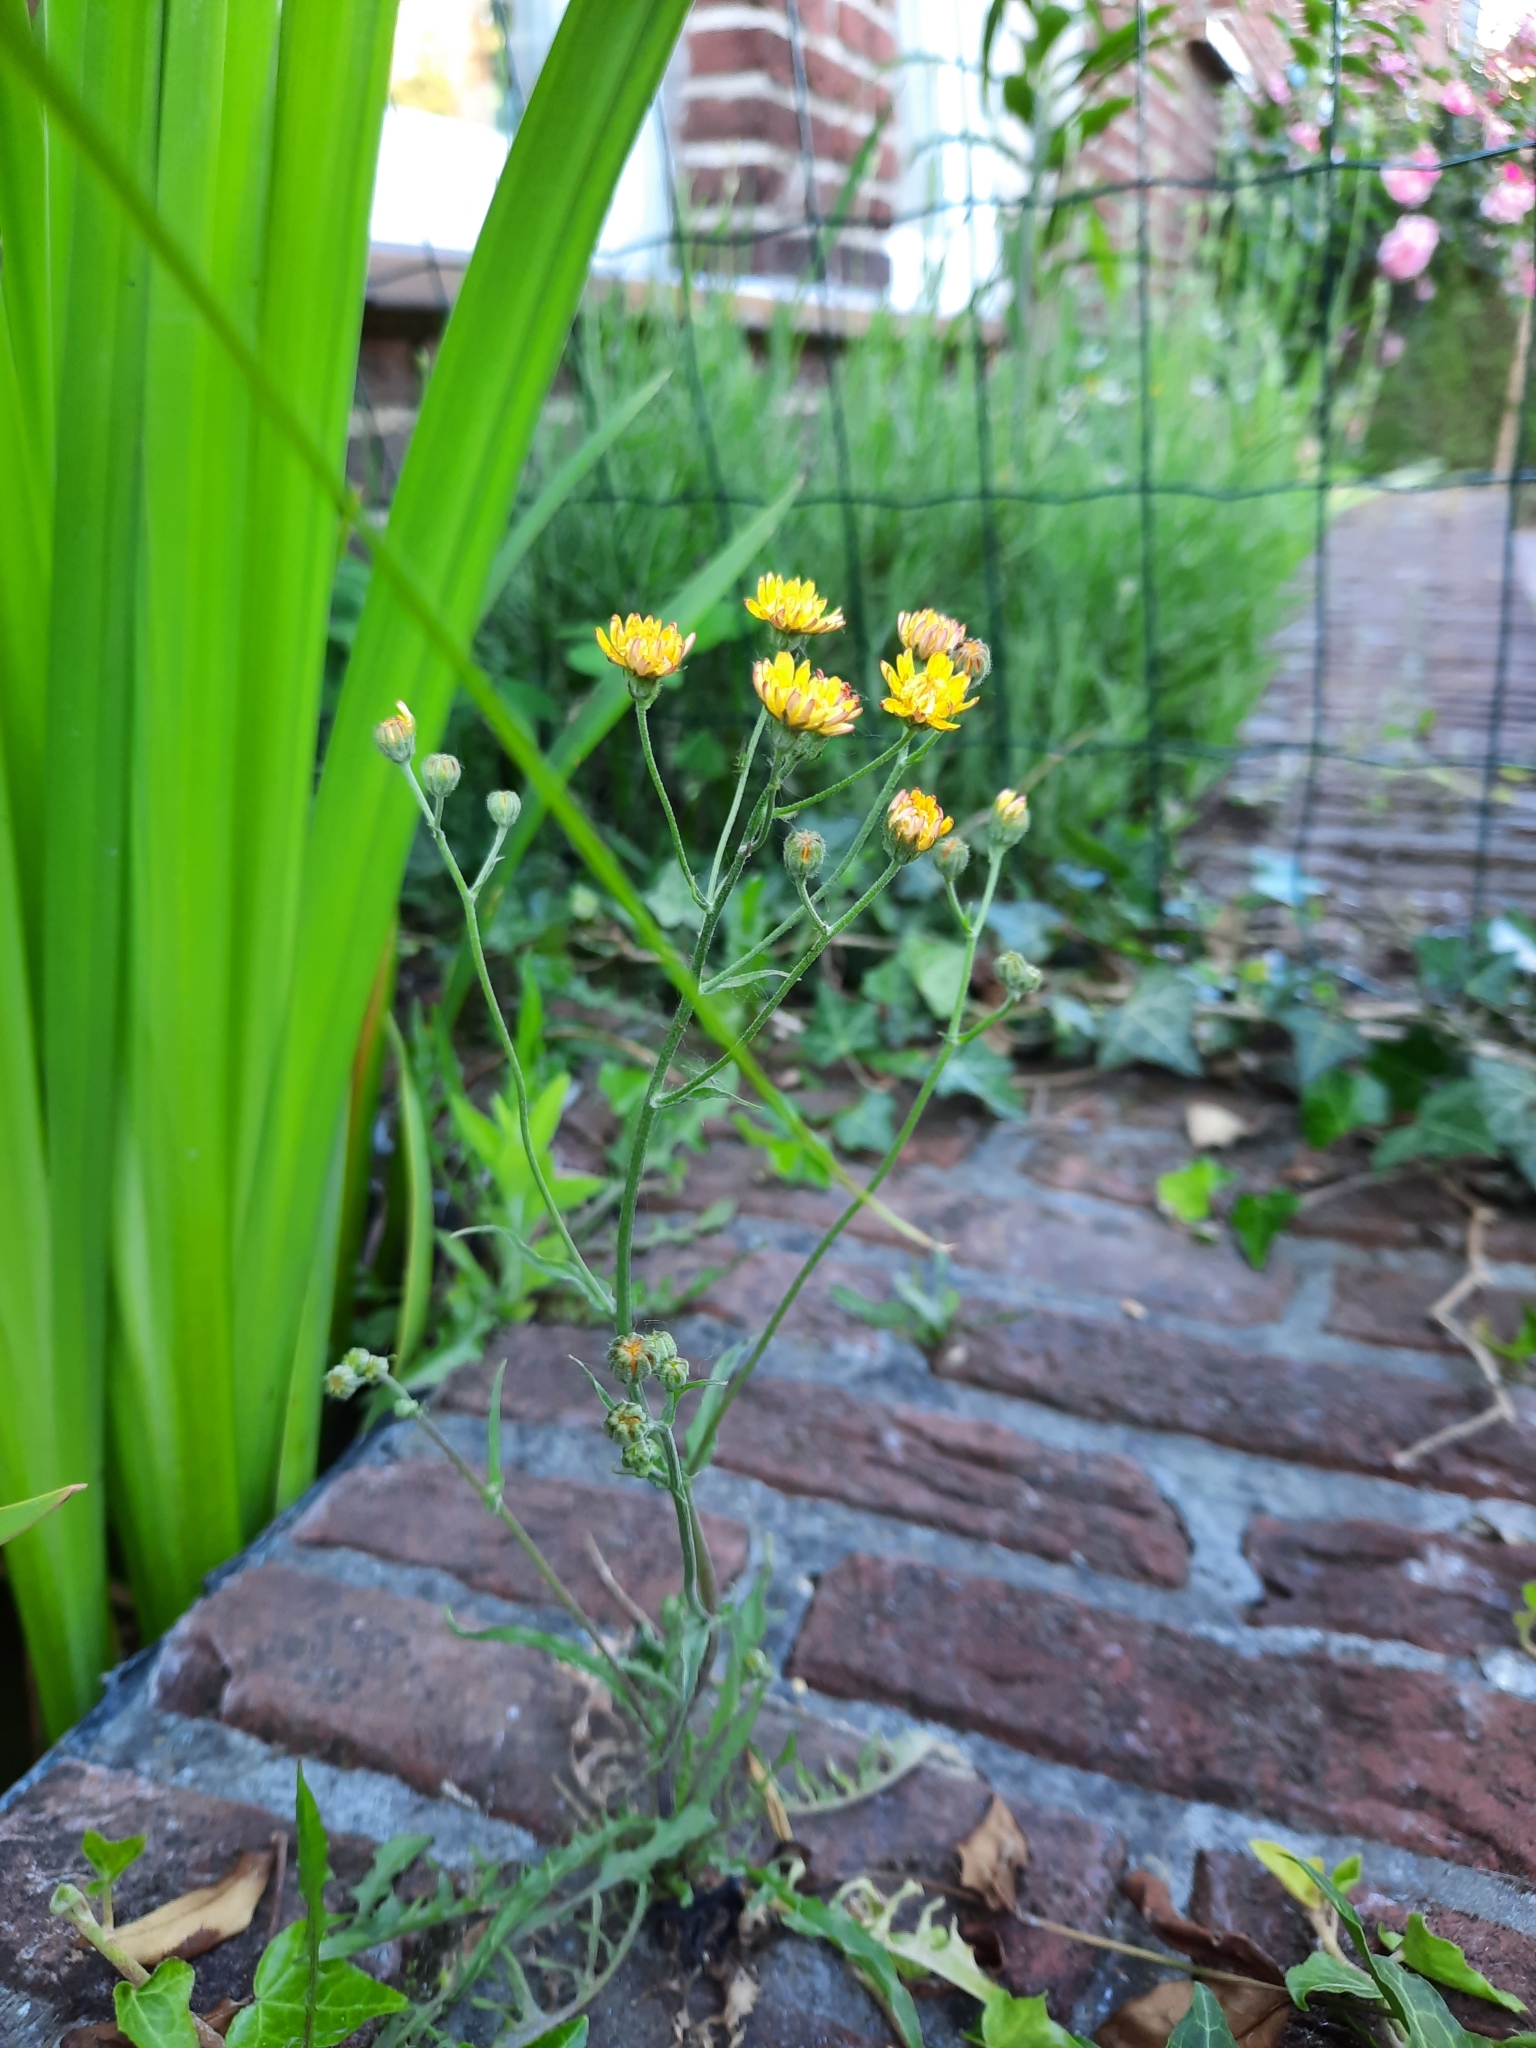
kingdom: Plantae
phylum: Tracheophyta
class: Magnoliopsida
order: Asterales
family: Asteraceae
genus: Crepis
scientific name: Crepis capillaris
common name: Smooth hawksbeard
